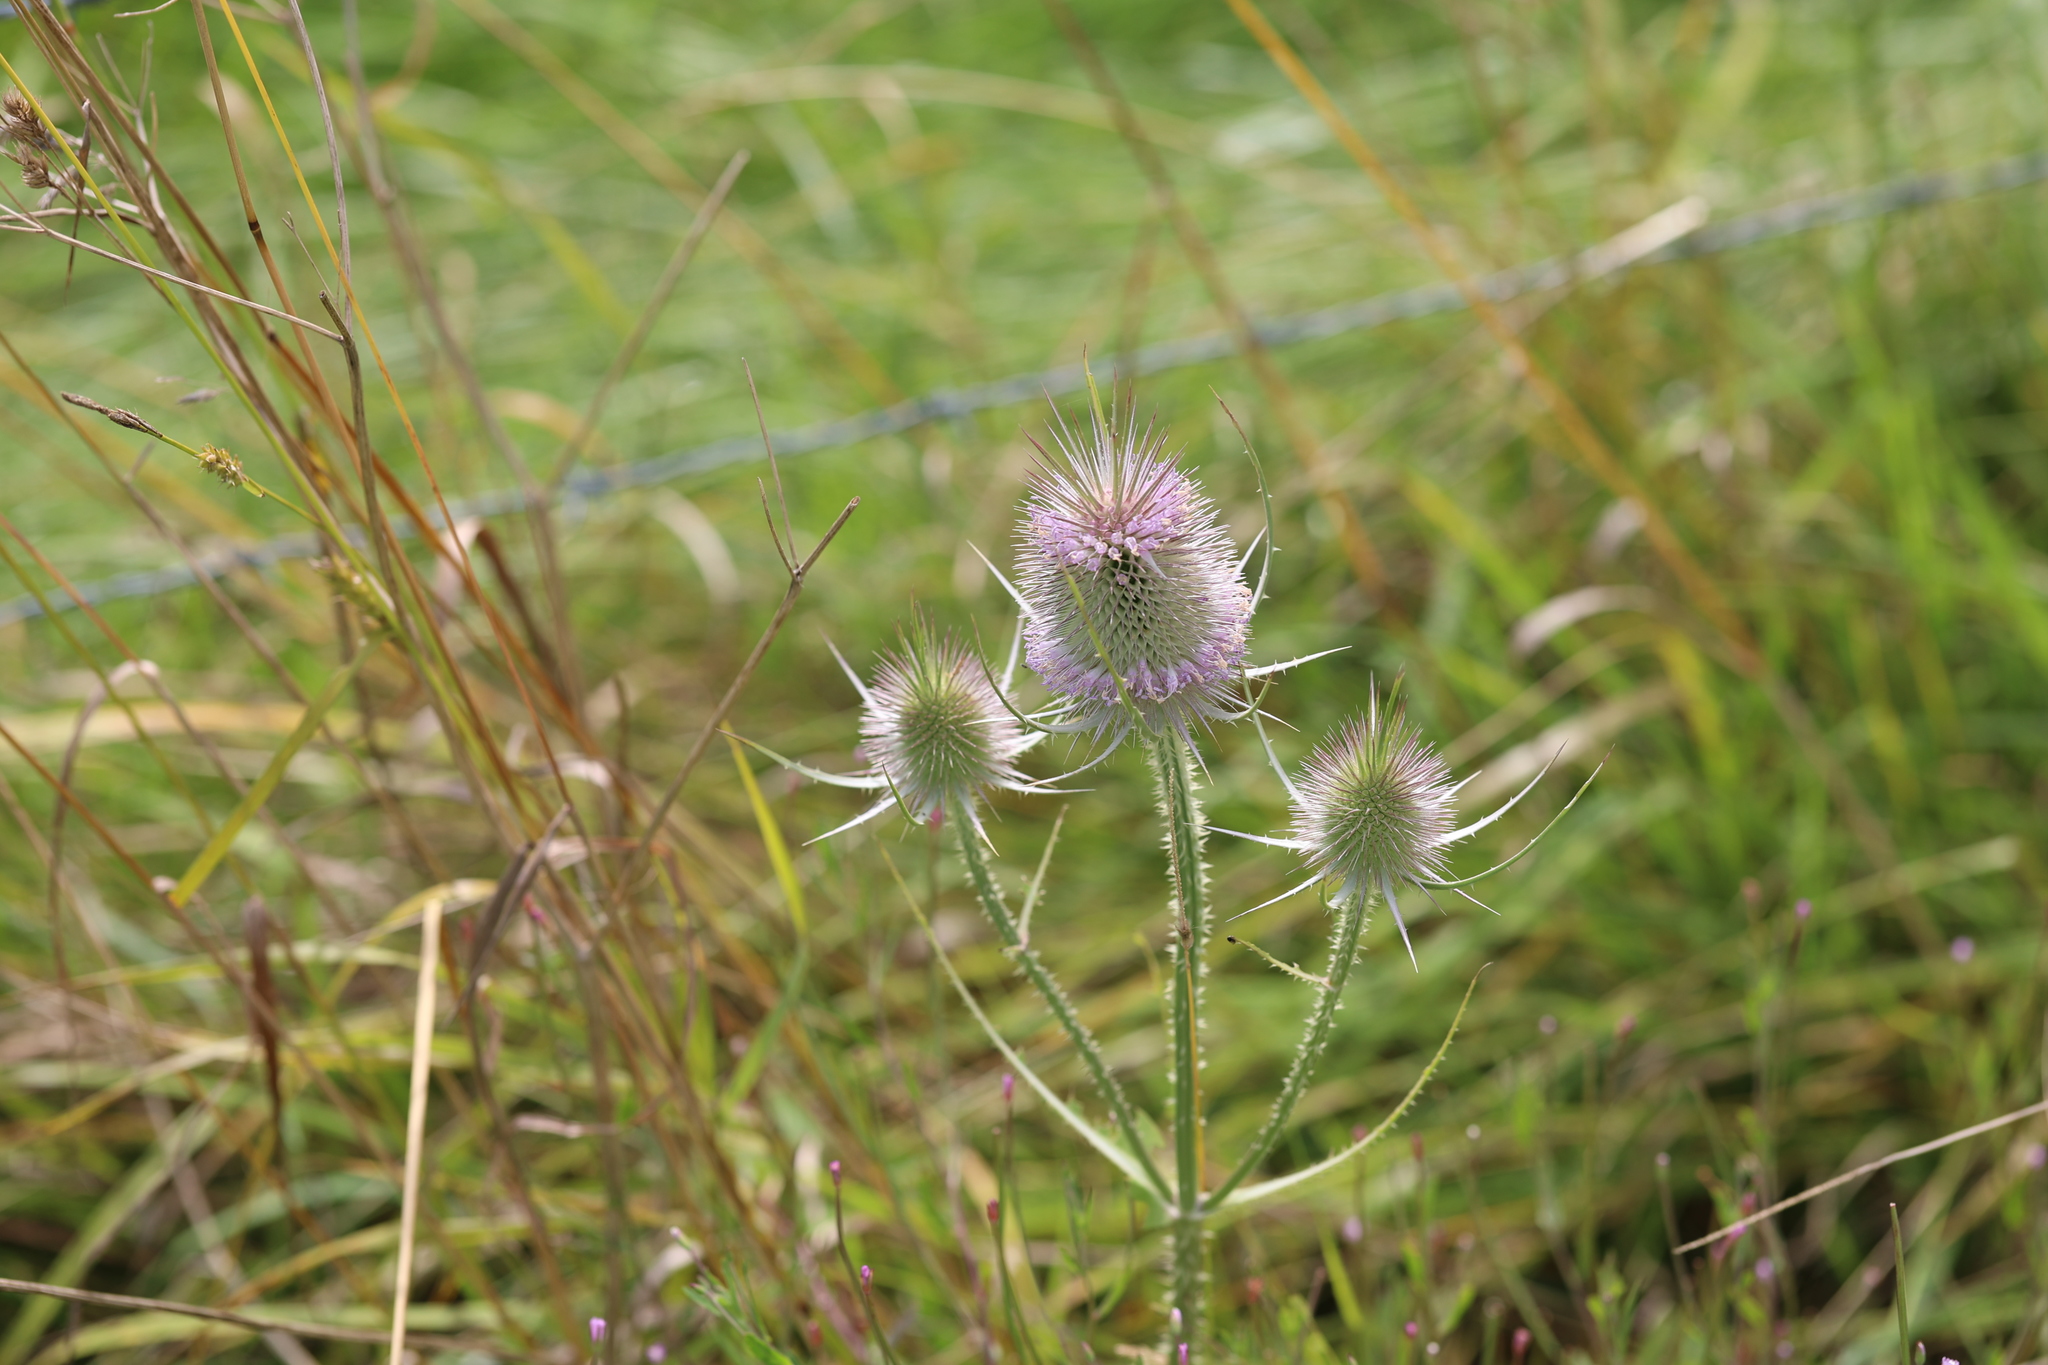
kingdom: Plantae
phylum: Tracheophyta
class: Magnoliopsida
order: Dipsacales
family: Caprifoliaceae
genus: Dipsacus
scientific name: Dipsacus fullonum
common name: Teasel
